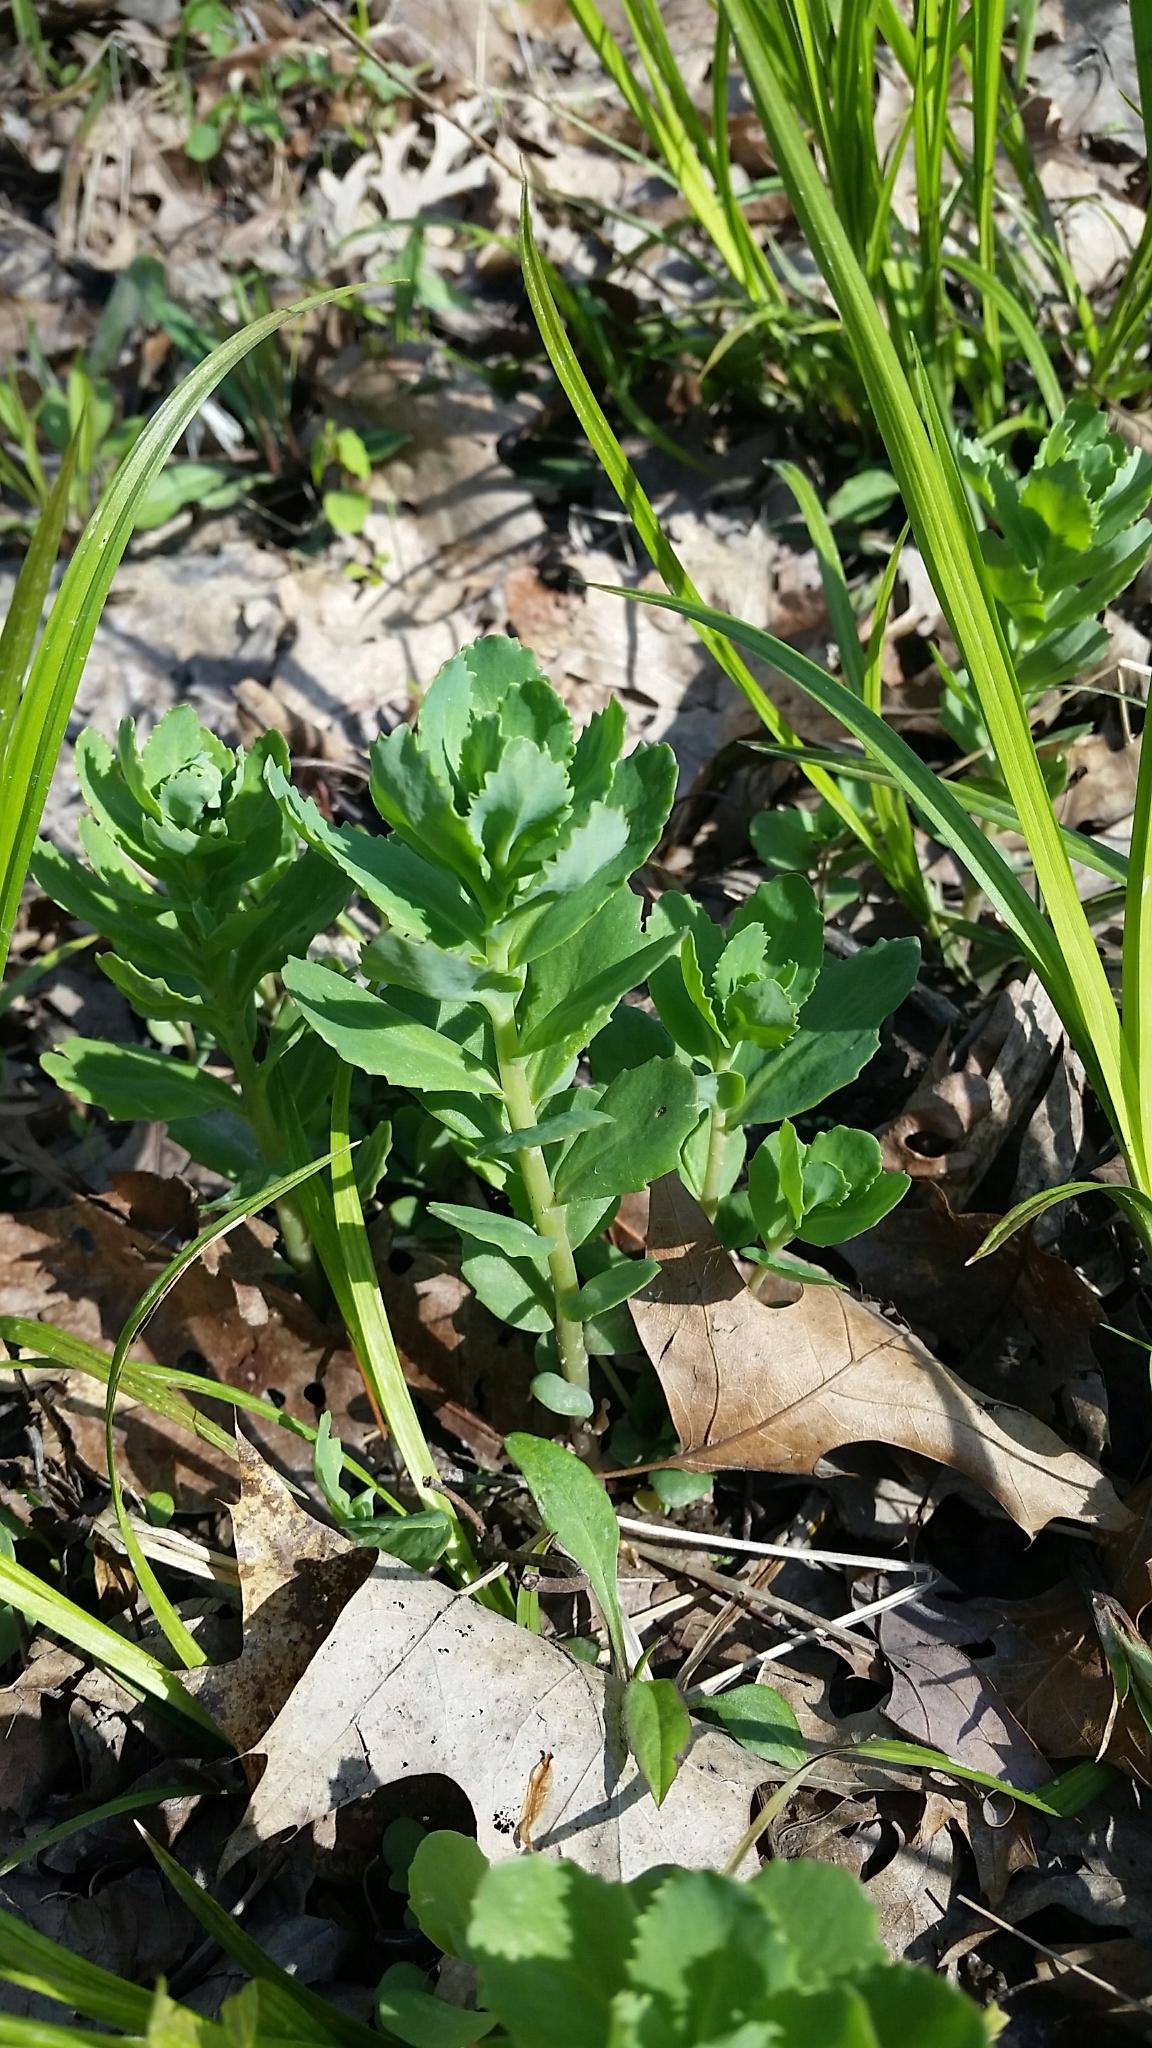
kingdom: Plantae
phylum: Tracheophyta
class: Magnoliopsida
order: Saxifragales
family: Crassulaceae
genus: Hylotelephium
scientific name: Hylotelephium telephium
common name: Live-forever
